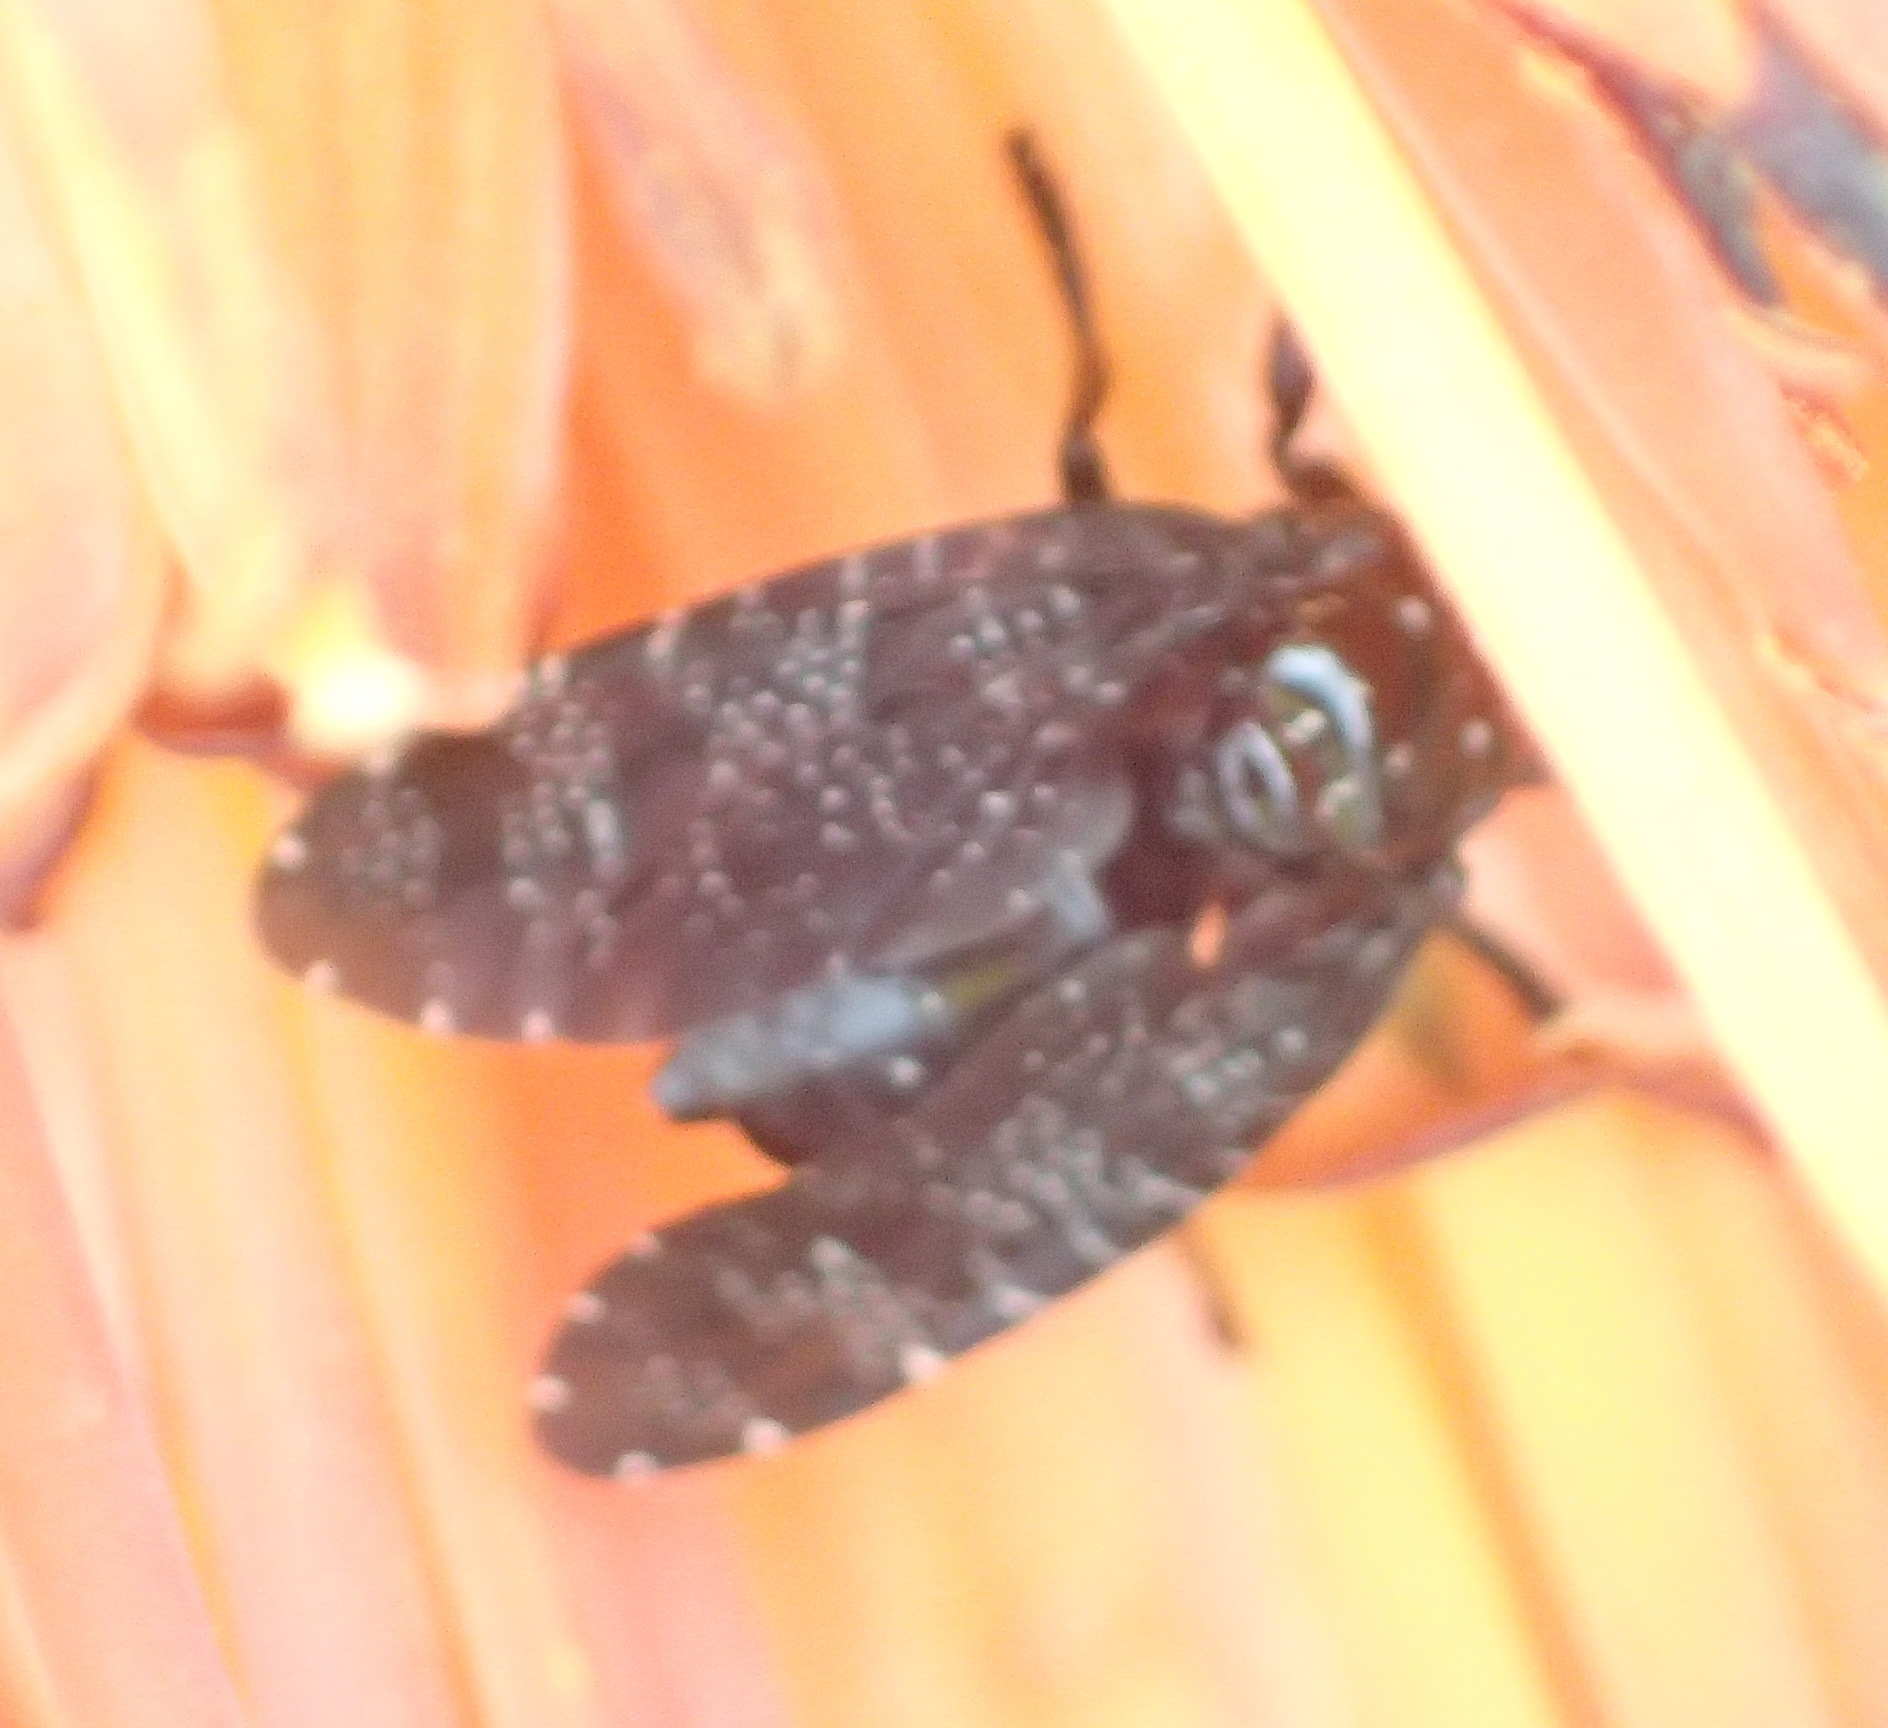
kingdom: Animalia
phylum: Arthropoda
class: Insecta
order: Diptera
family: Platystomatidae
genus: Palpomya
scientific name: Palpomya asphaltina
